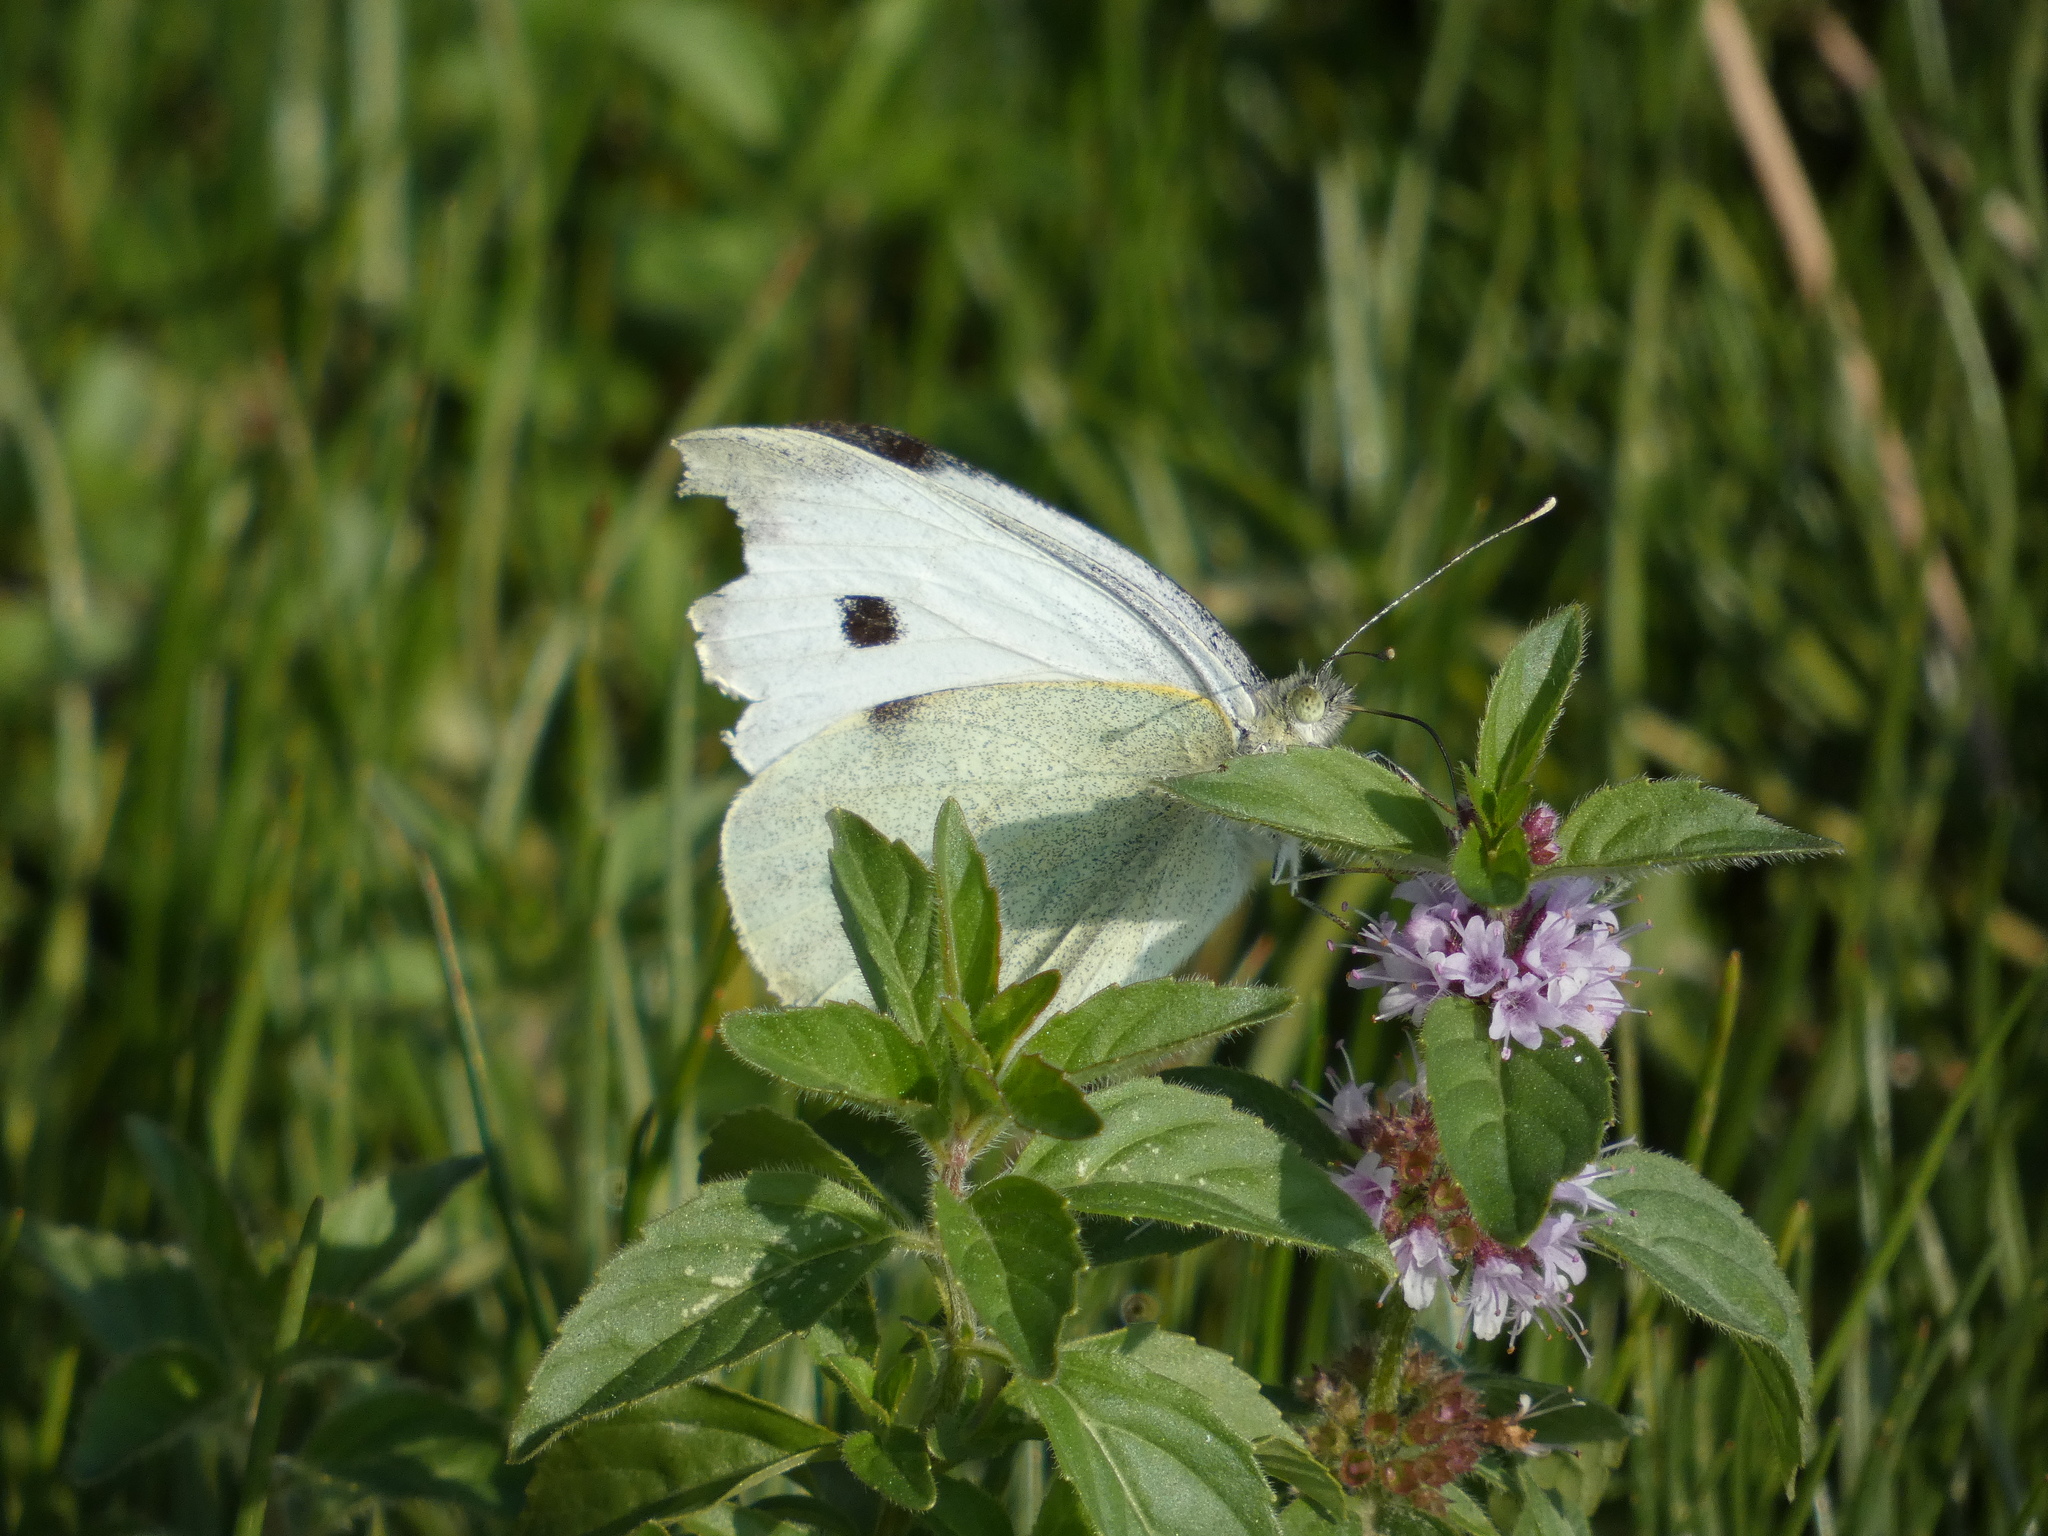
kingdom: Animalia
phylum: Arthropoda
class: Insecta
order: Lepidoptera
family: Pieridae
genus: Pieris
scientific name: Pieris brassicae
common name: Large white
